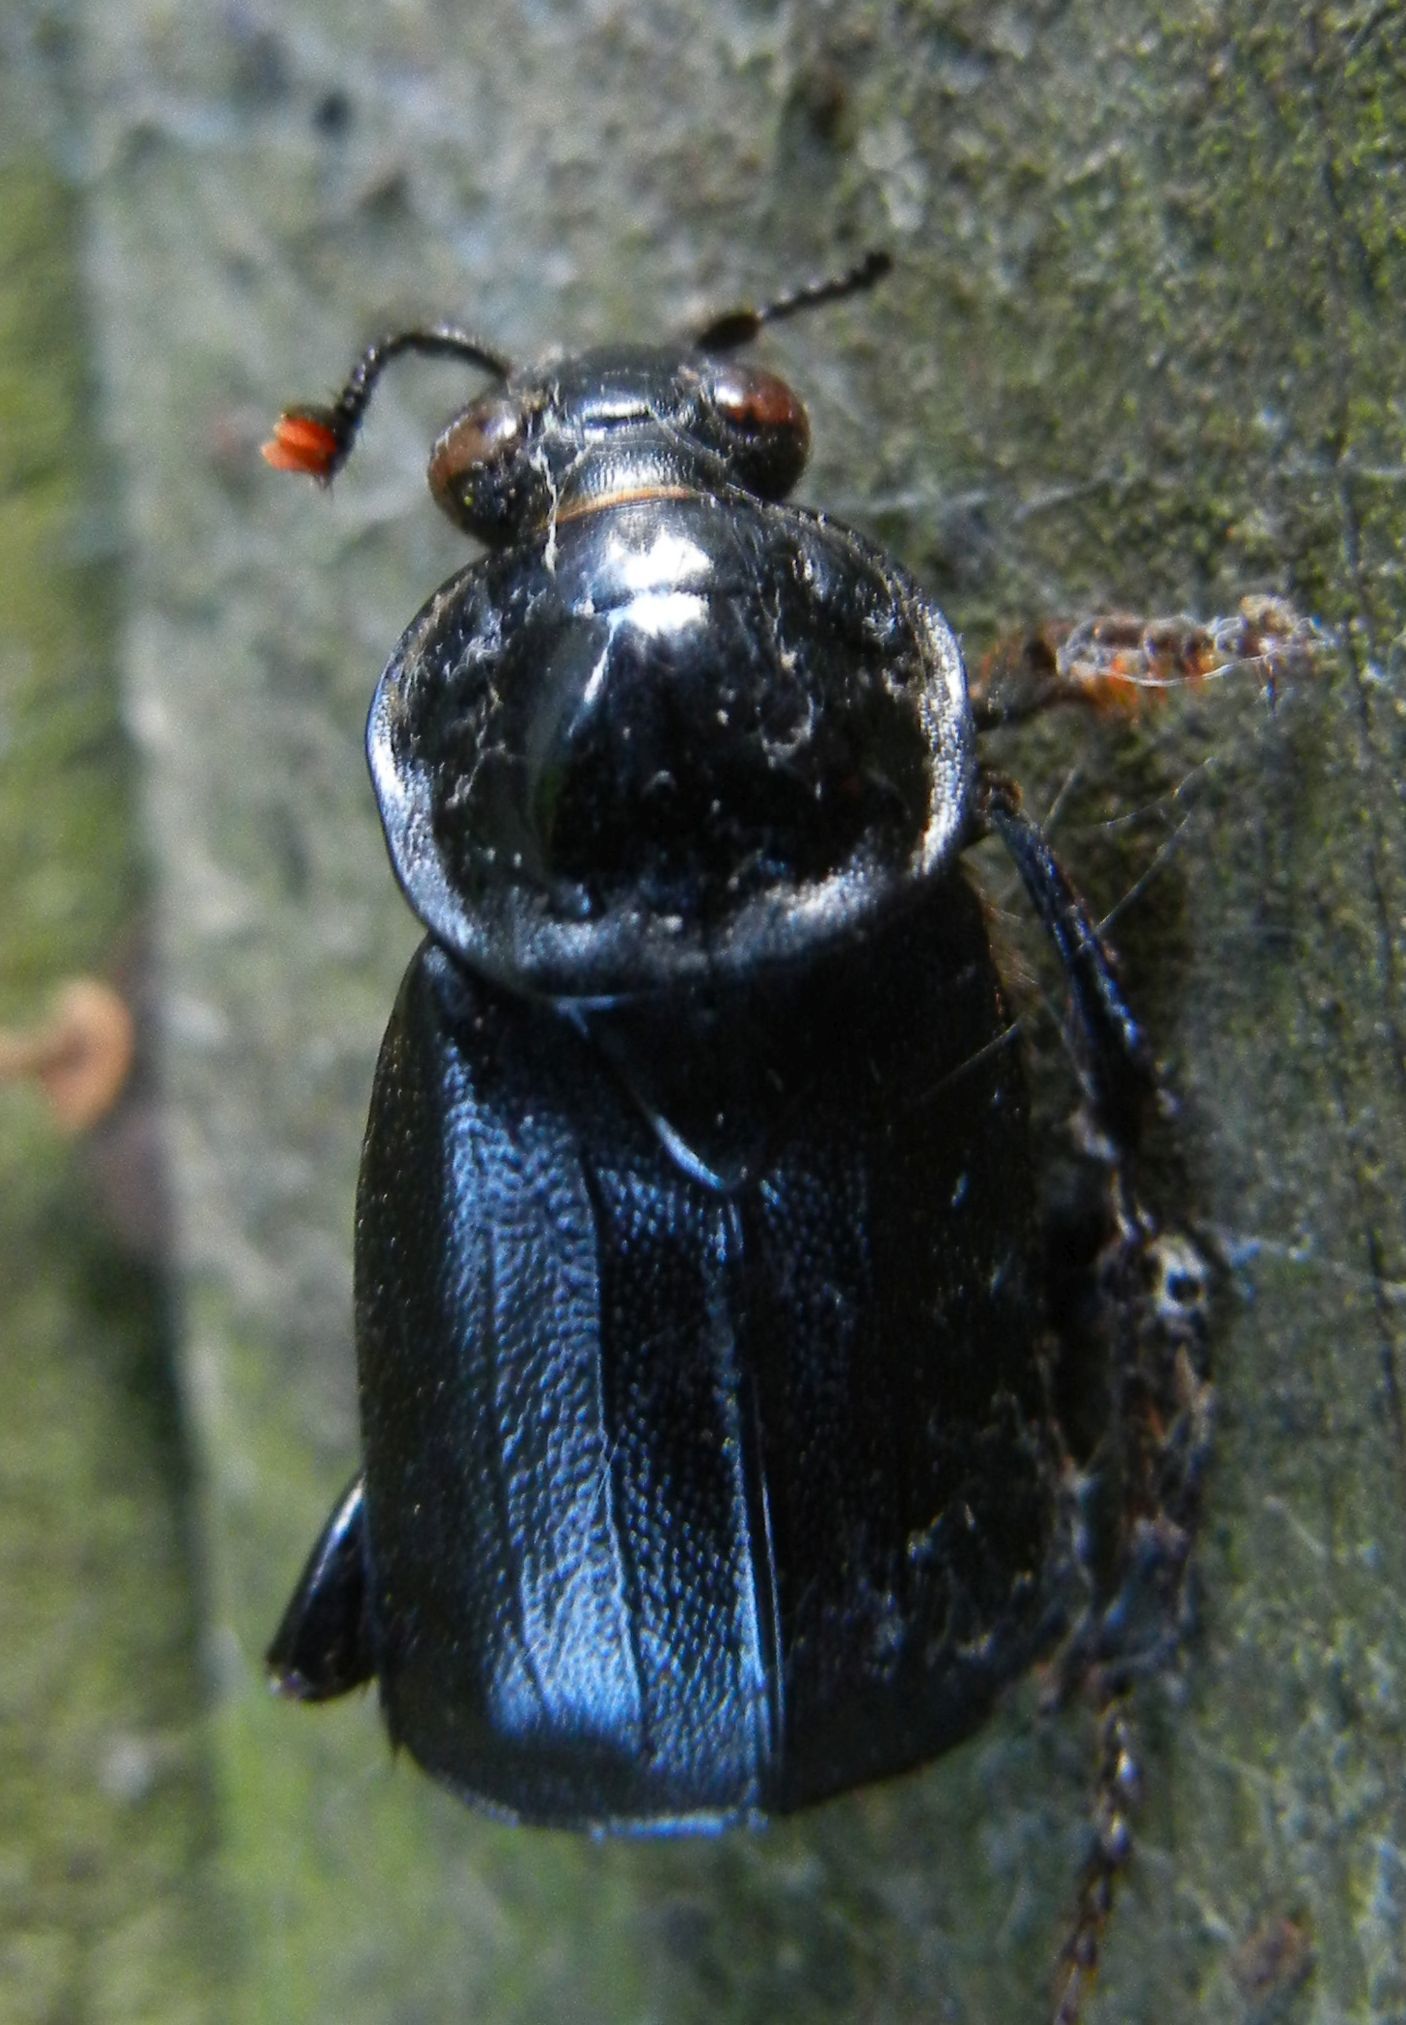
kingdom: Animalia
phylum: Arthropoda
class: Insecta
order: Coleoptera
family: Staphylinidae
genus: Nicrophorus
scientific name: Nicrophorus humator
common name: Black sexton beetle
